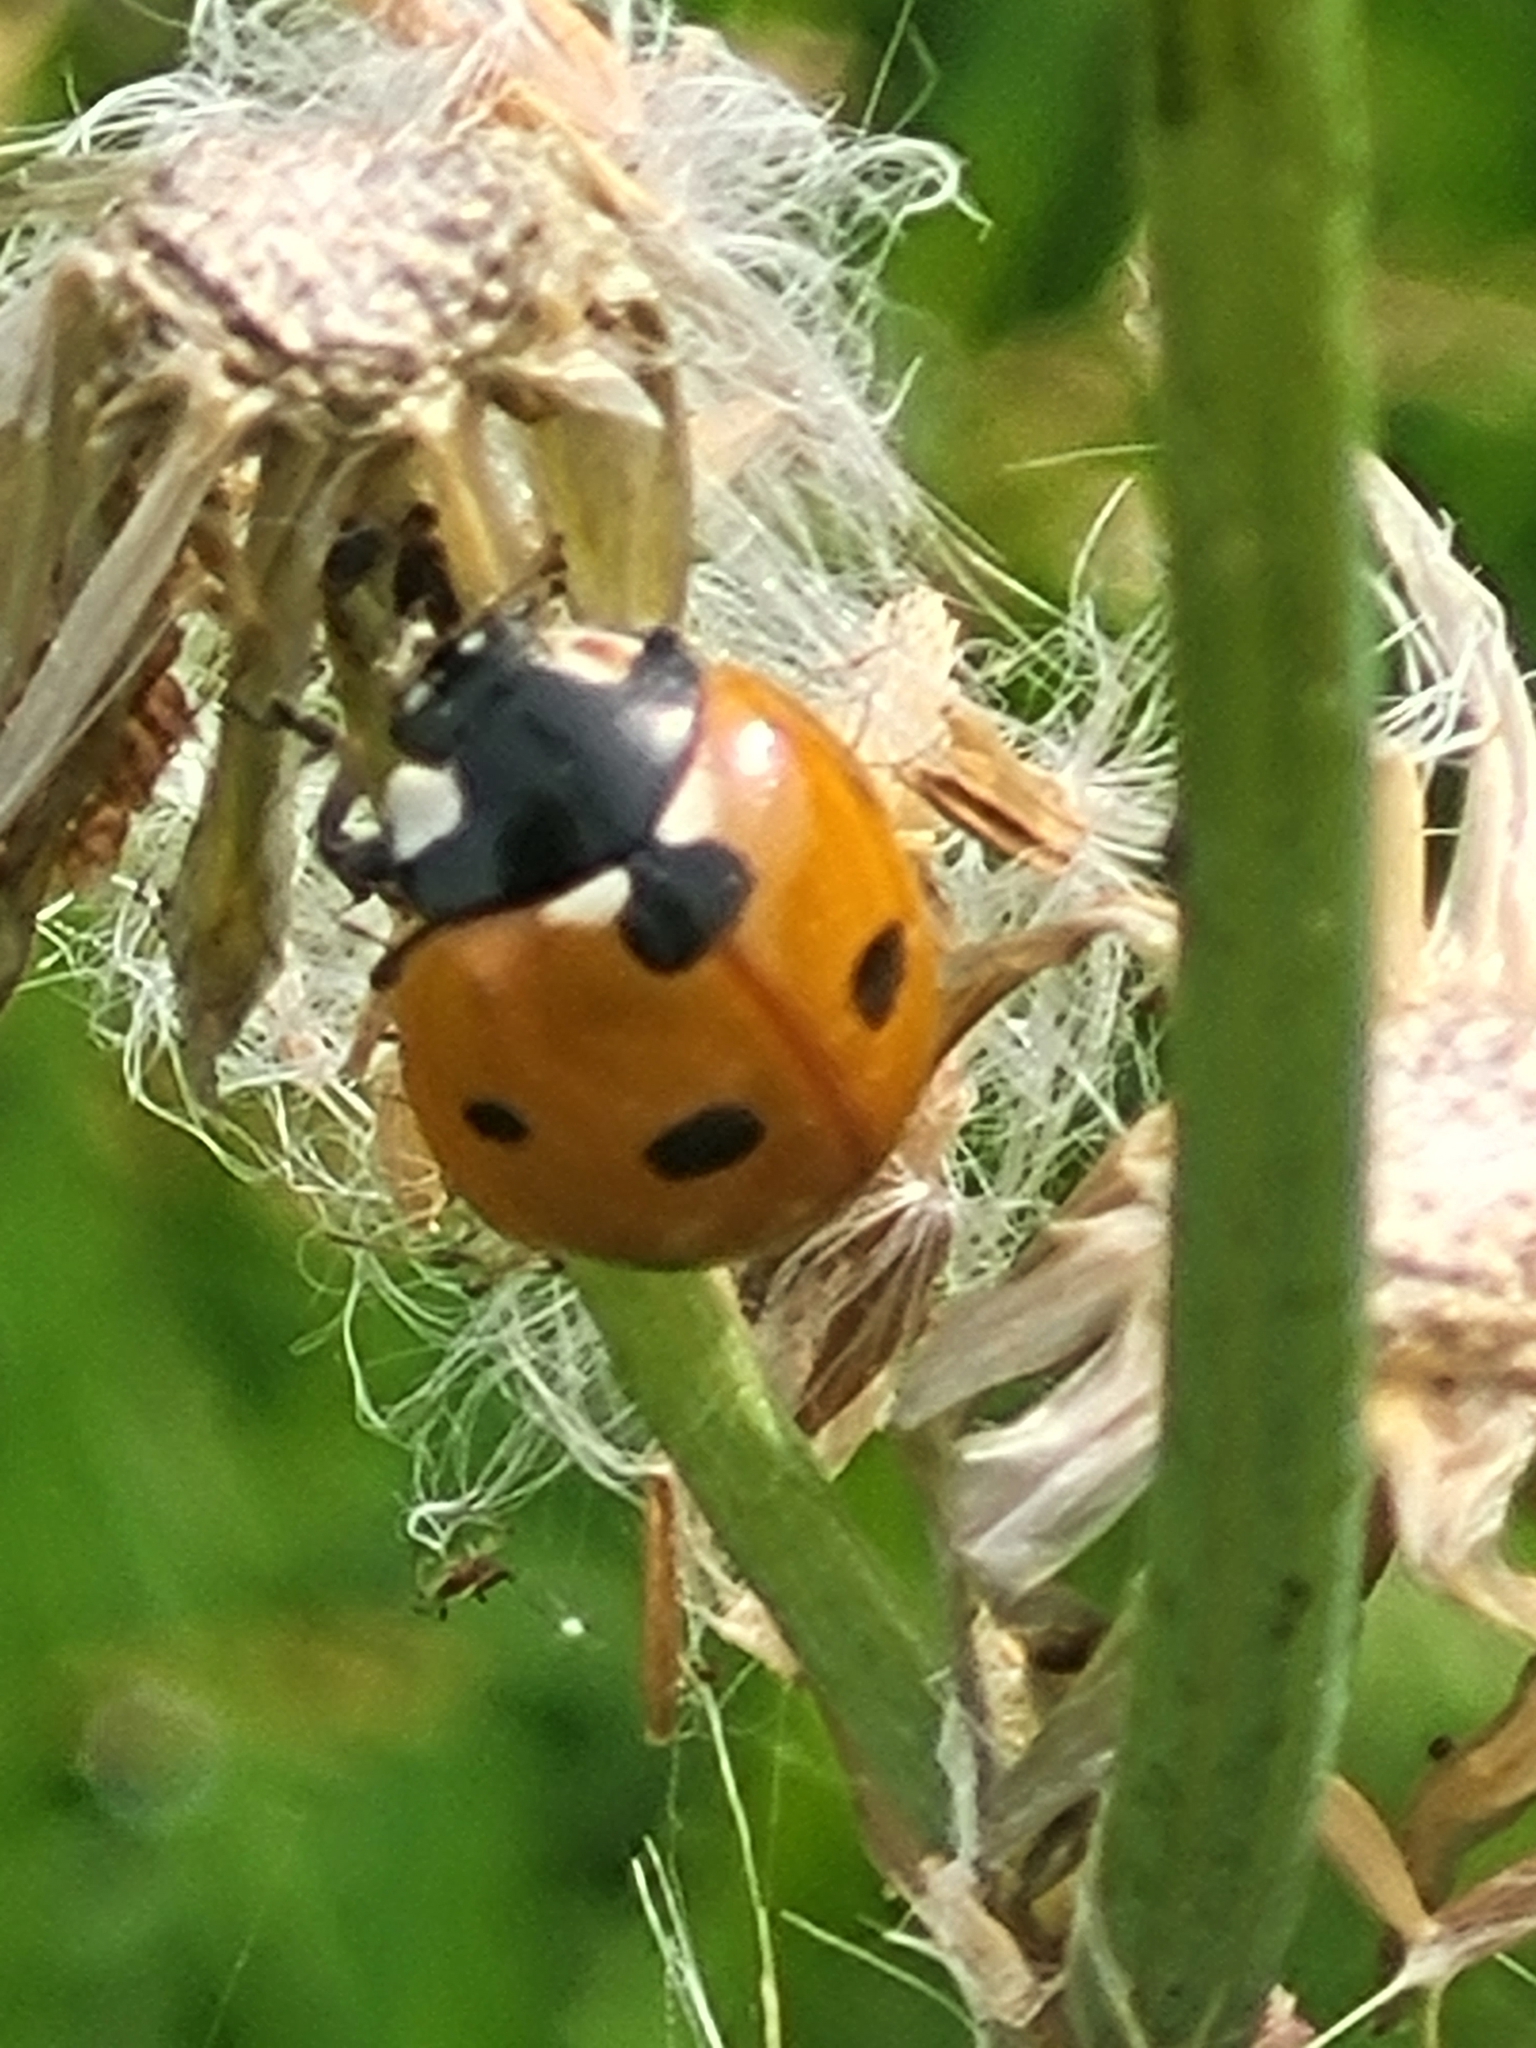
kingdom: Animalia
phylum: Arthropoda
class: Insecta
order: Coleoptera
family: Coccinellidae
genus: Coccinella
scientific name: Coccinella septempunctata
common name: Sevenspotted lady beetle
